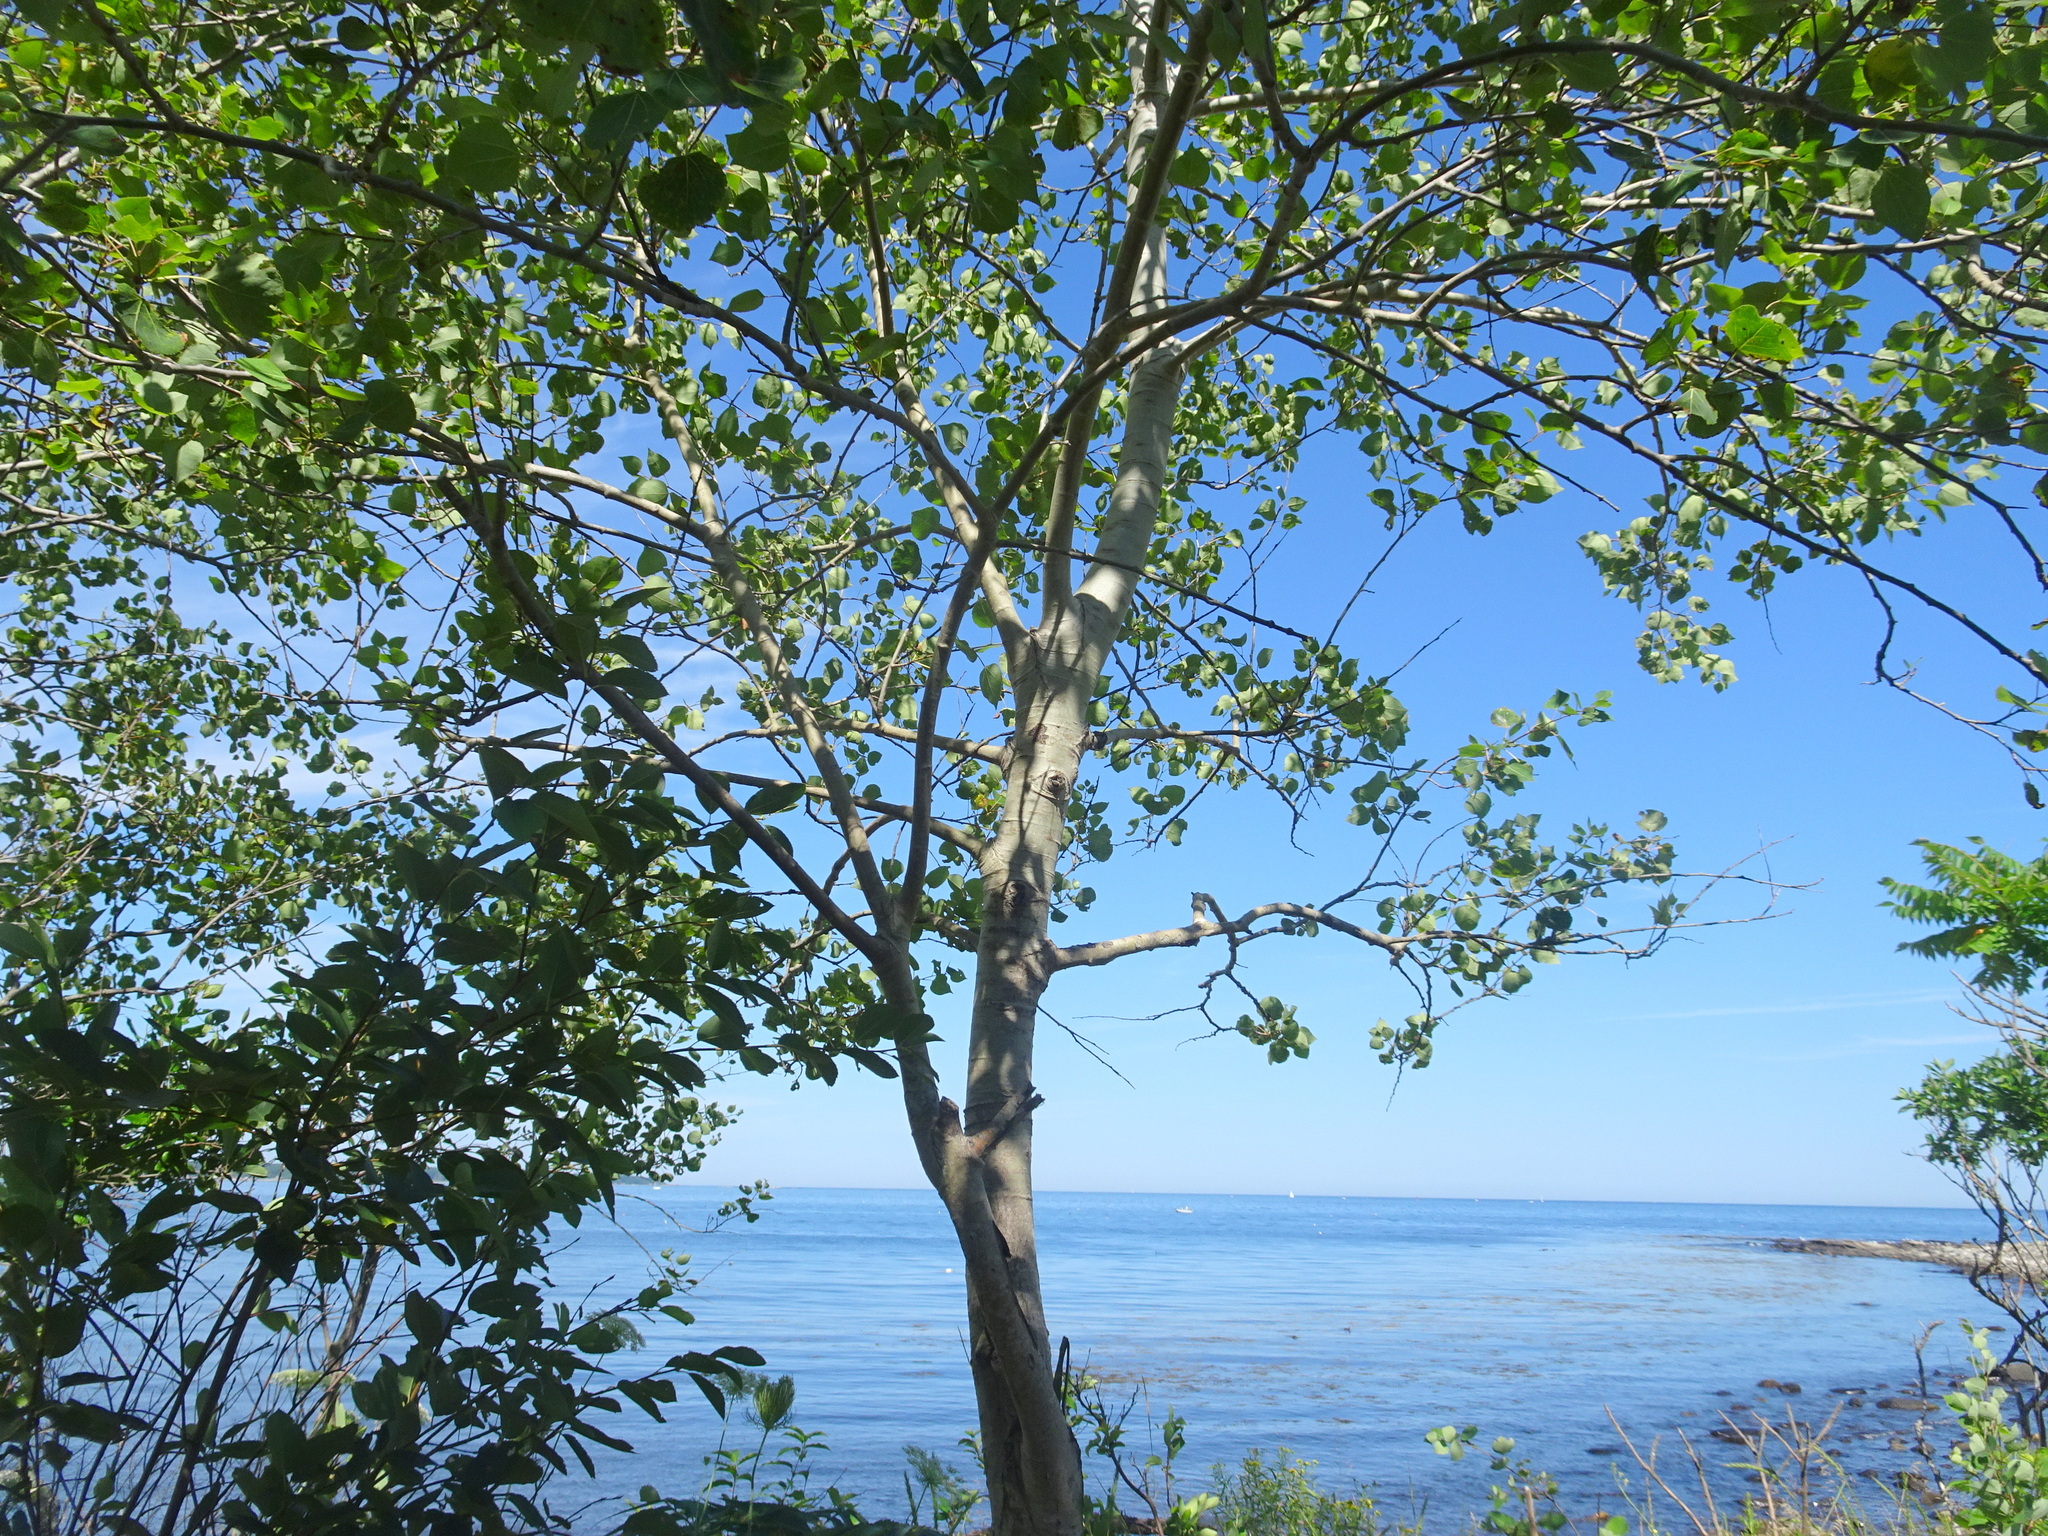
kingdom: Plantae
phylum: Tracheophyta
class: Magnoliopsida
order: Malpighiales
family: Salicaceae
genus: Populus
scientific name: Populus tremuloides
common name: Quaking aspen
